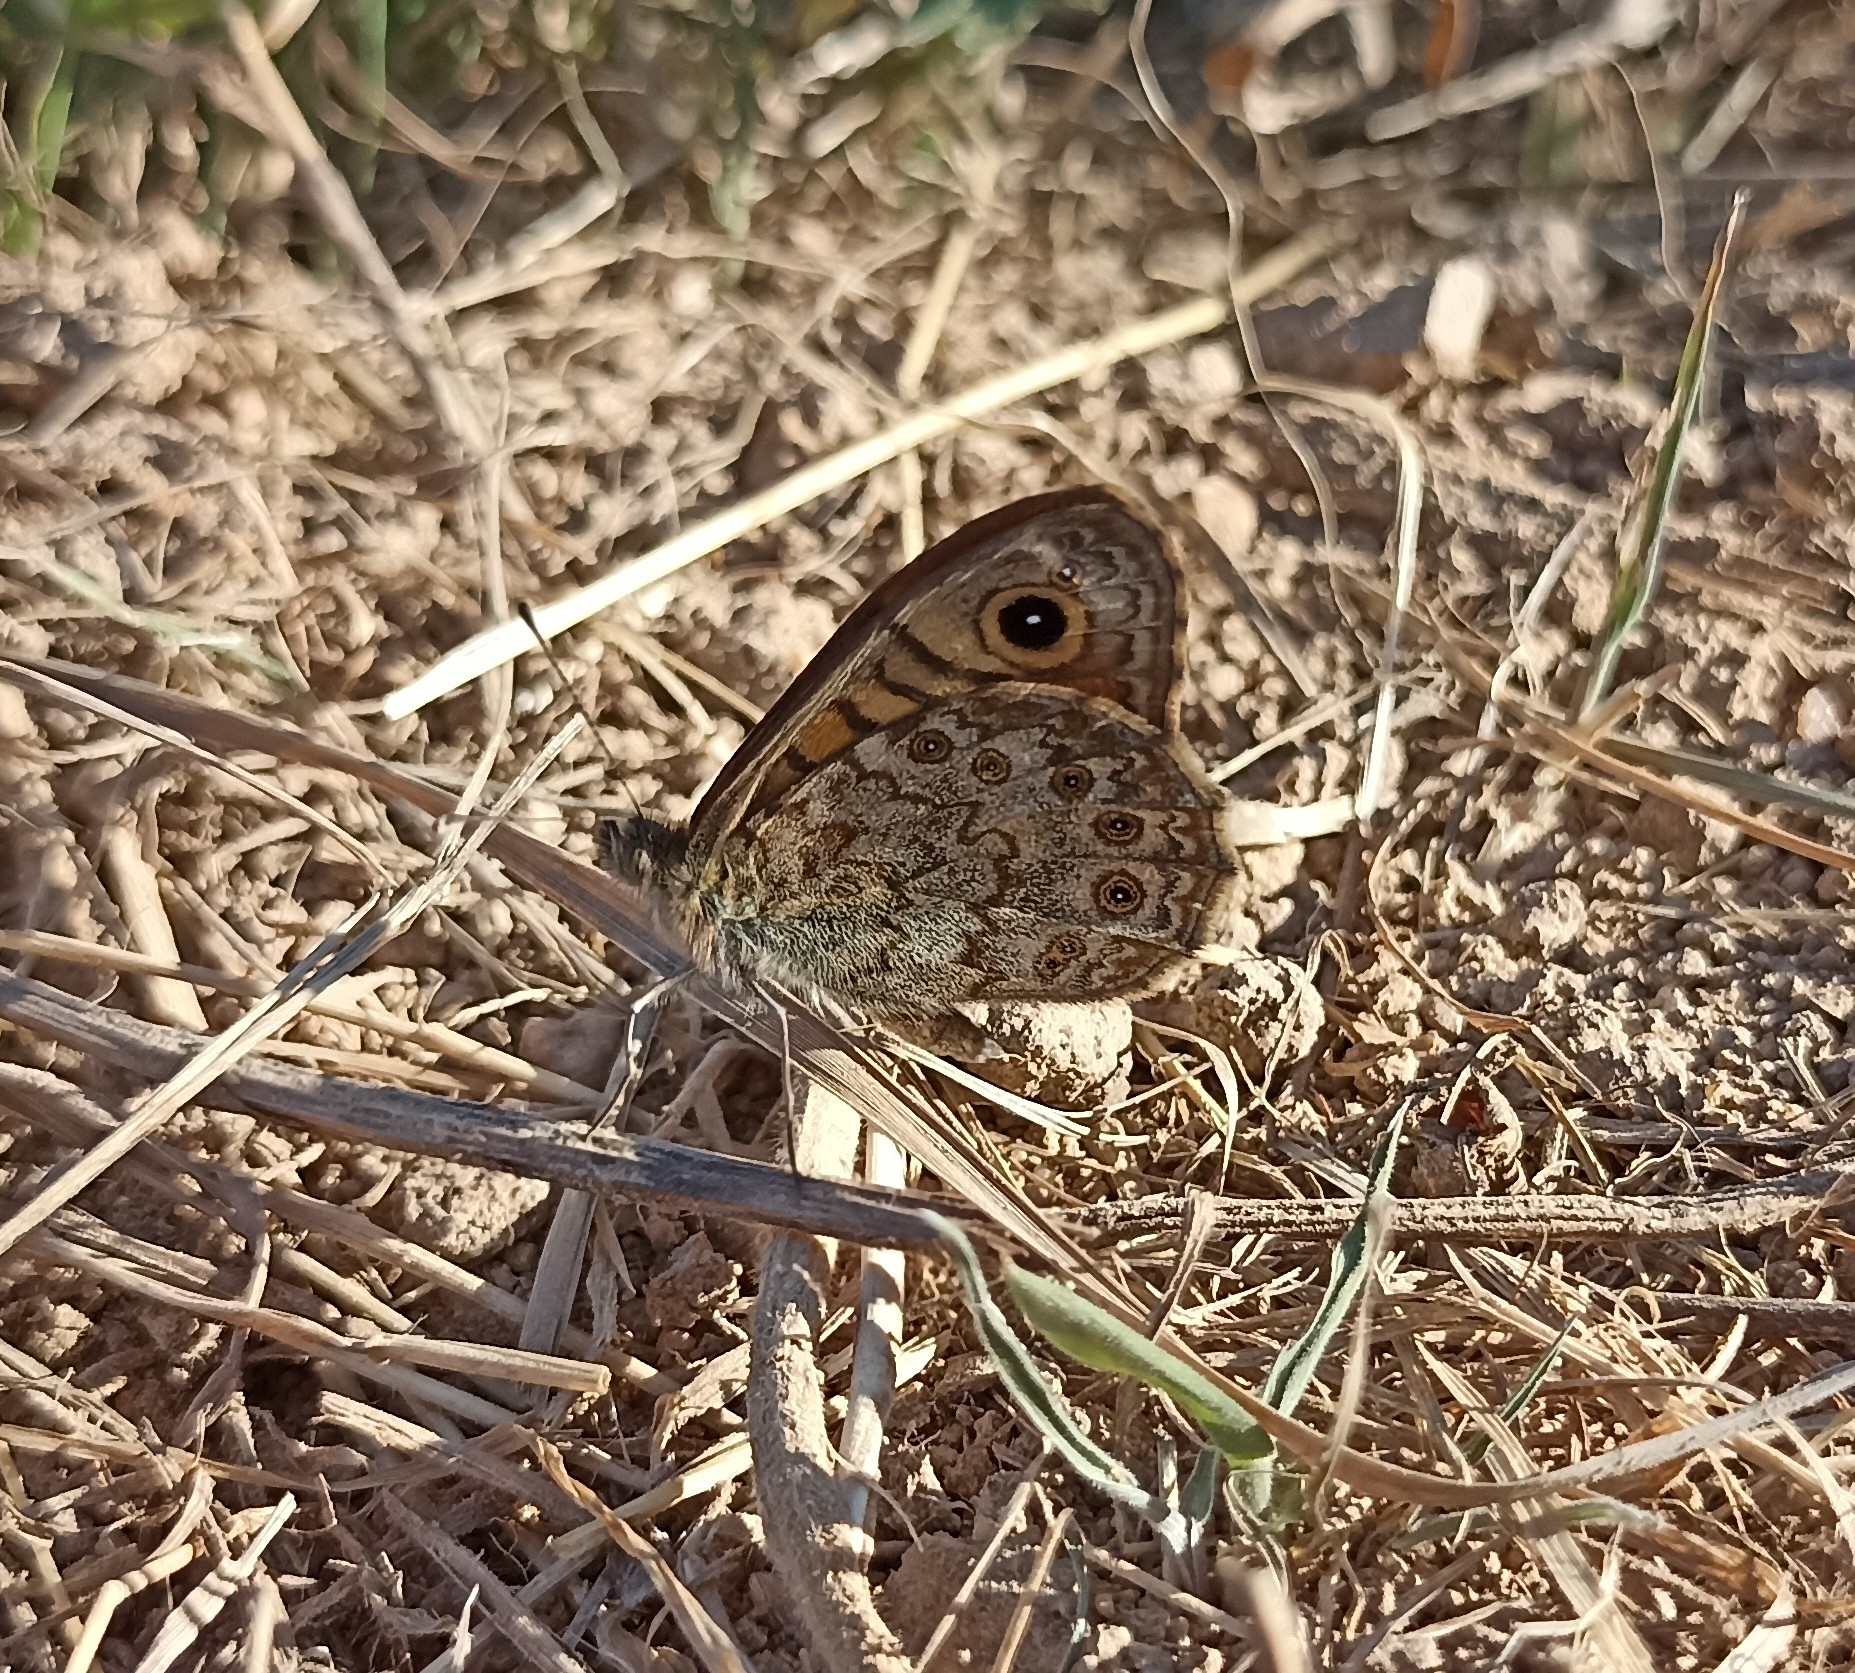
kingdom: Animalia
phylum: Arthropoda
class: Insecta
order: Lepidoptera
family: Nymphalidae
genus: Pararge
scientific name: Pararge Lasiommata megera
